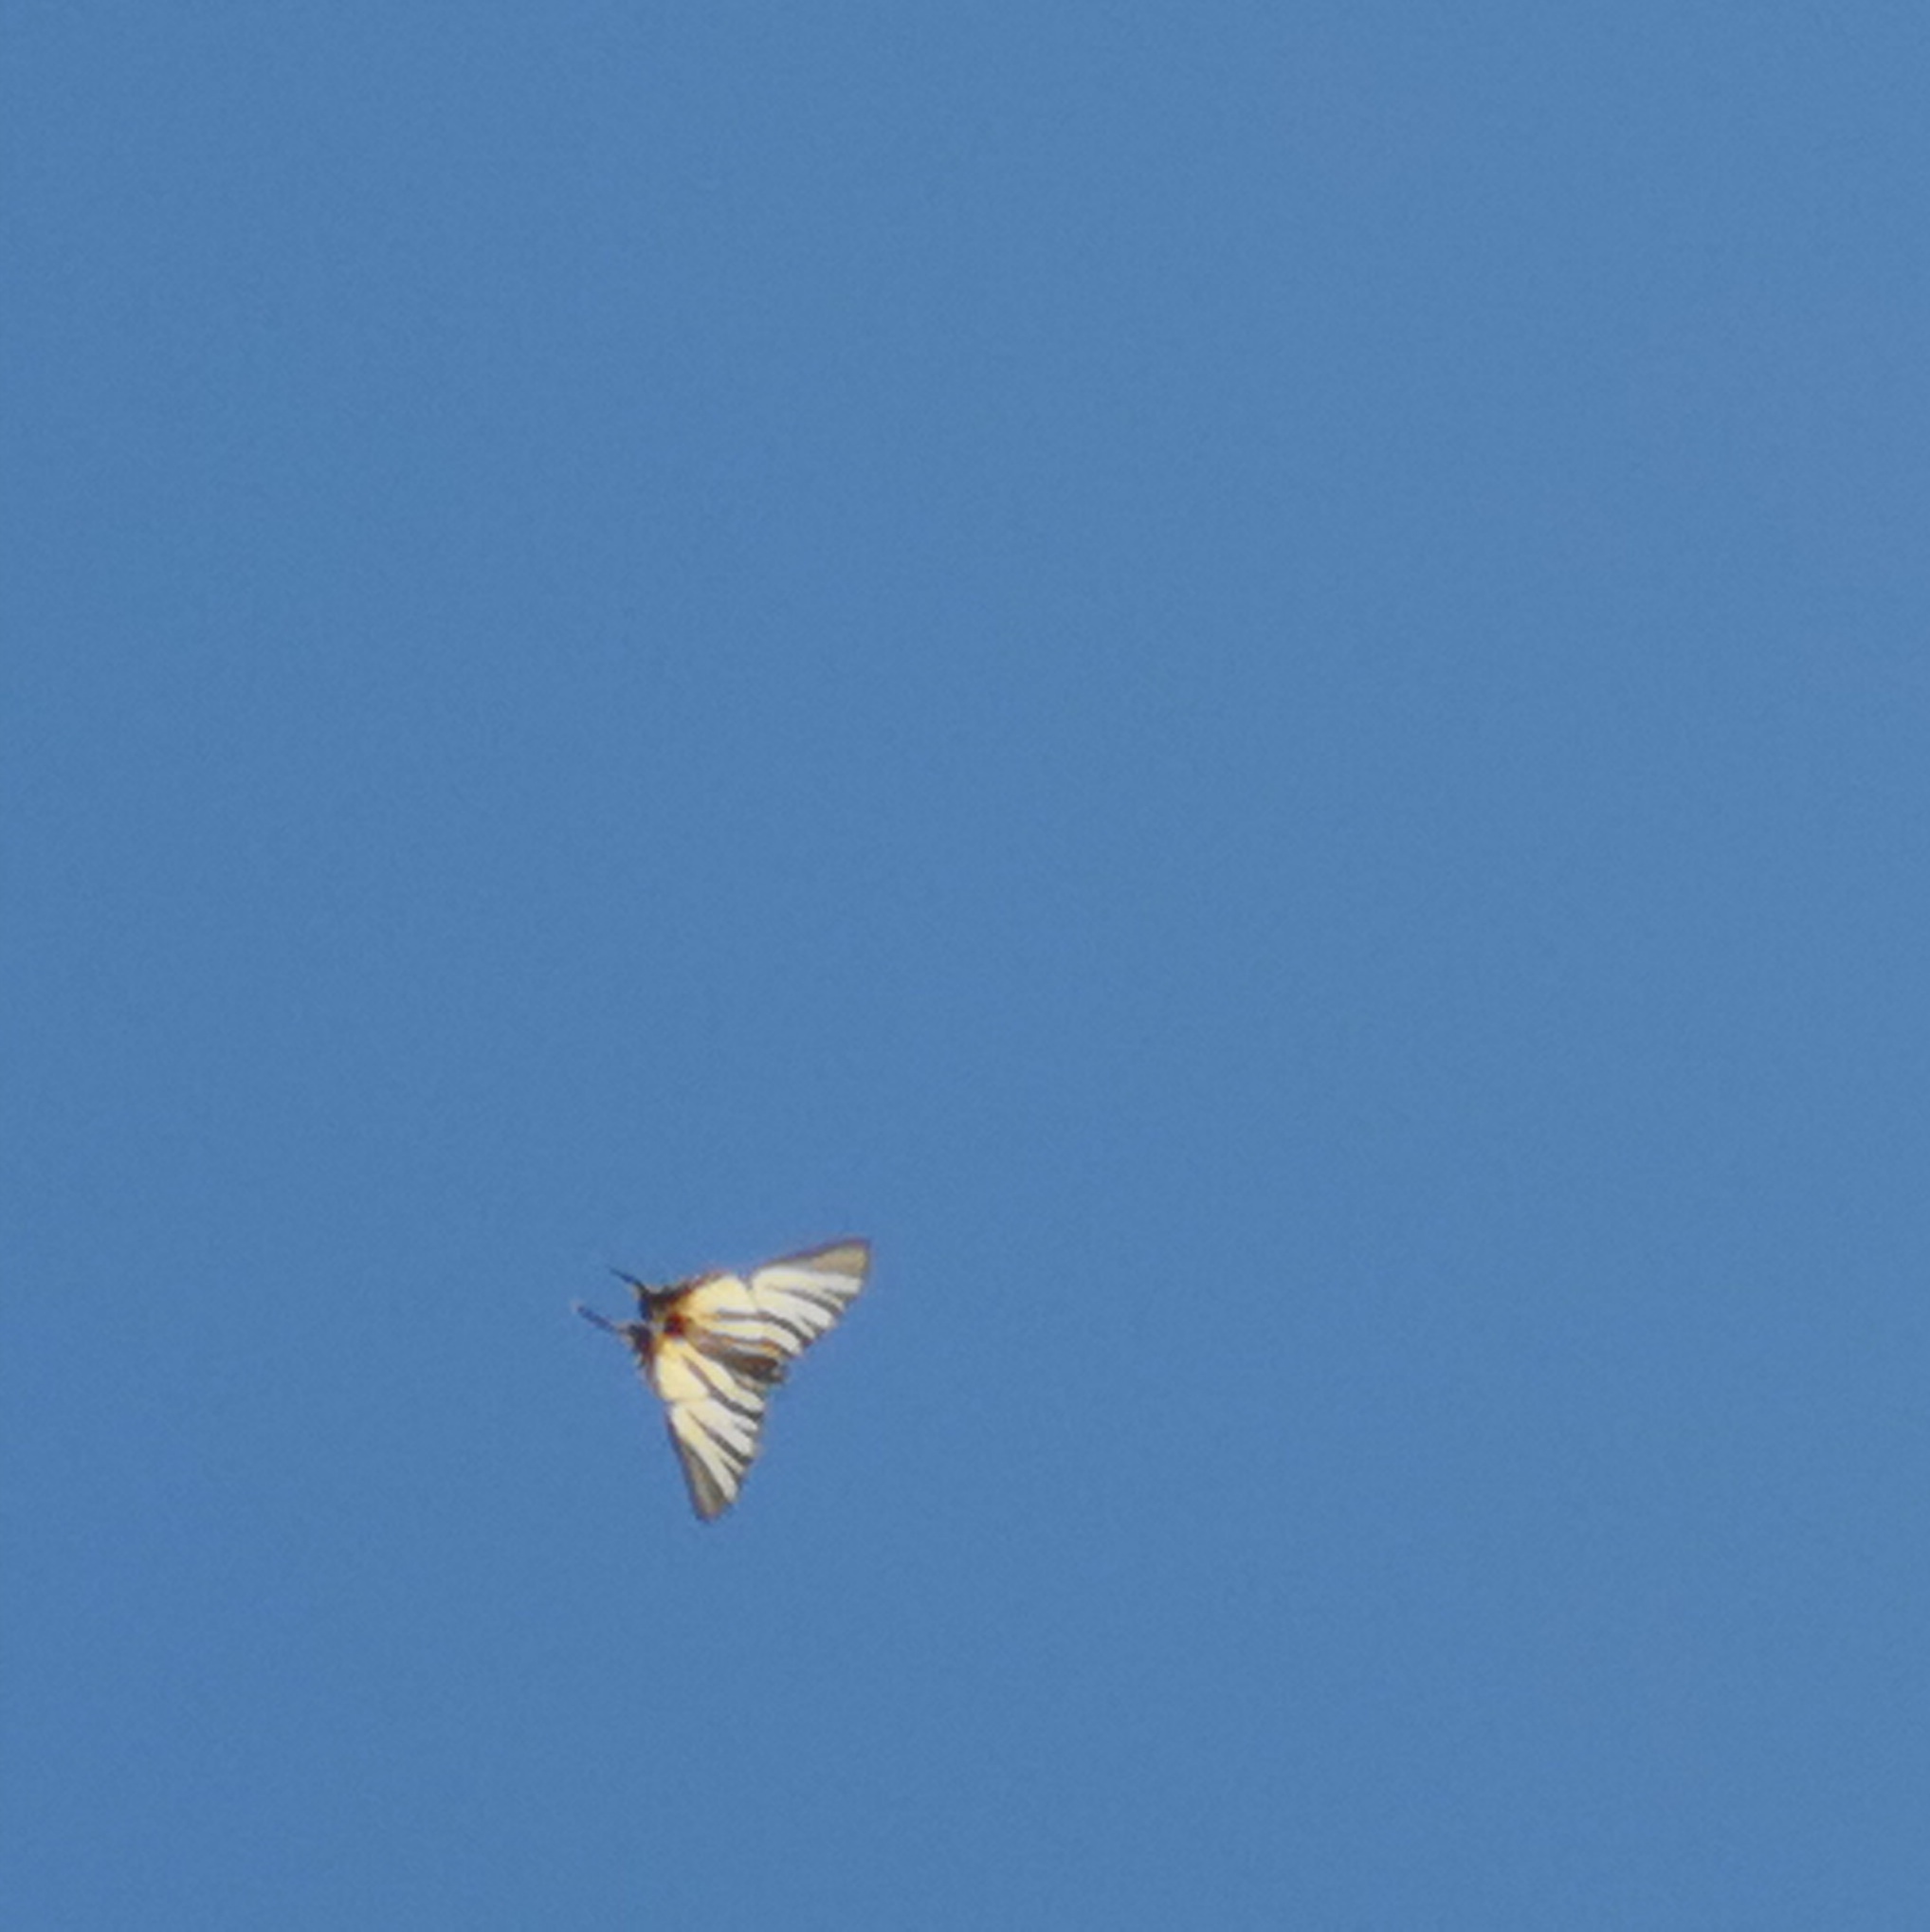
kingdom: Animalia
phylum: Arthropoda
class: Insecta
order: Lepidoptera
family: Papilionidae
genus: Iphiclides
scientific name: Iphiclides podalirius
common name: Scarce swallowtail
